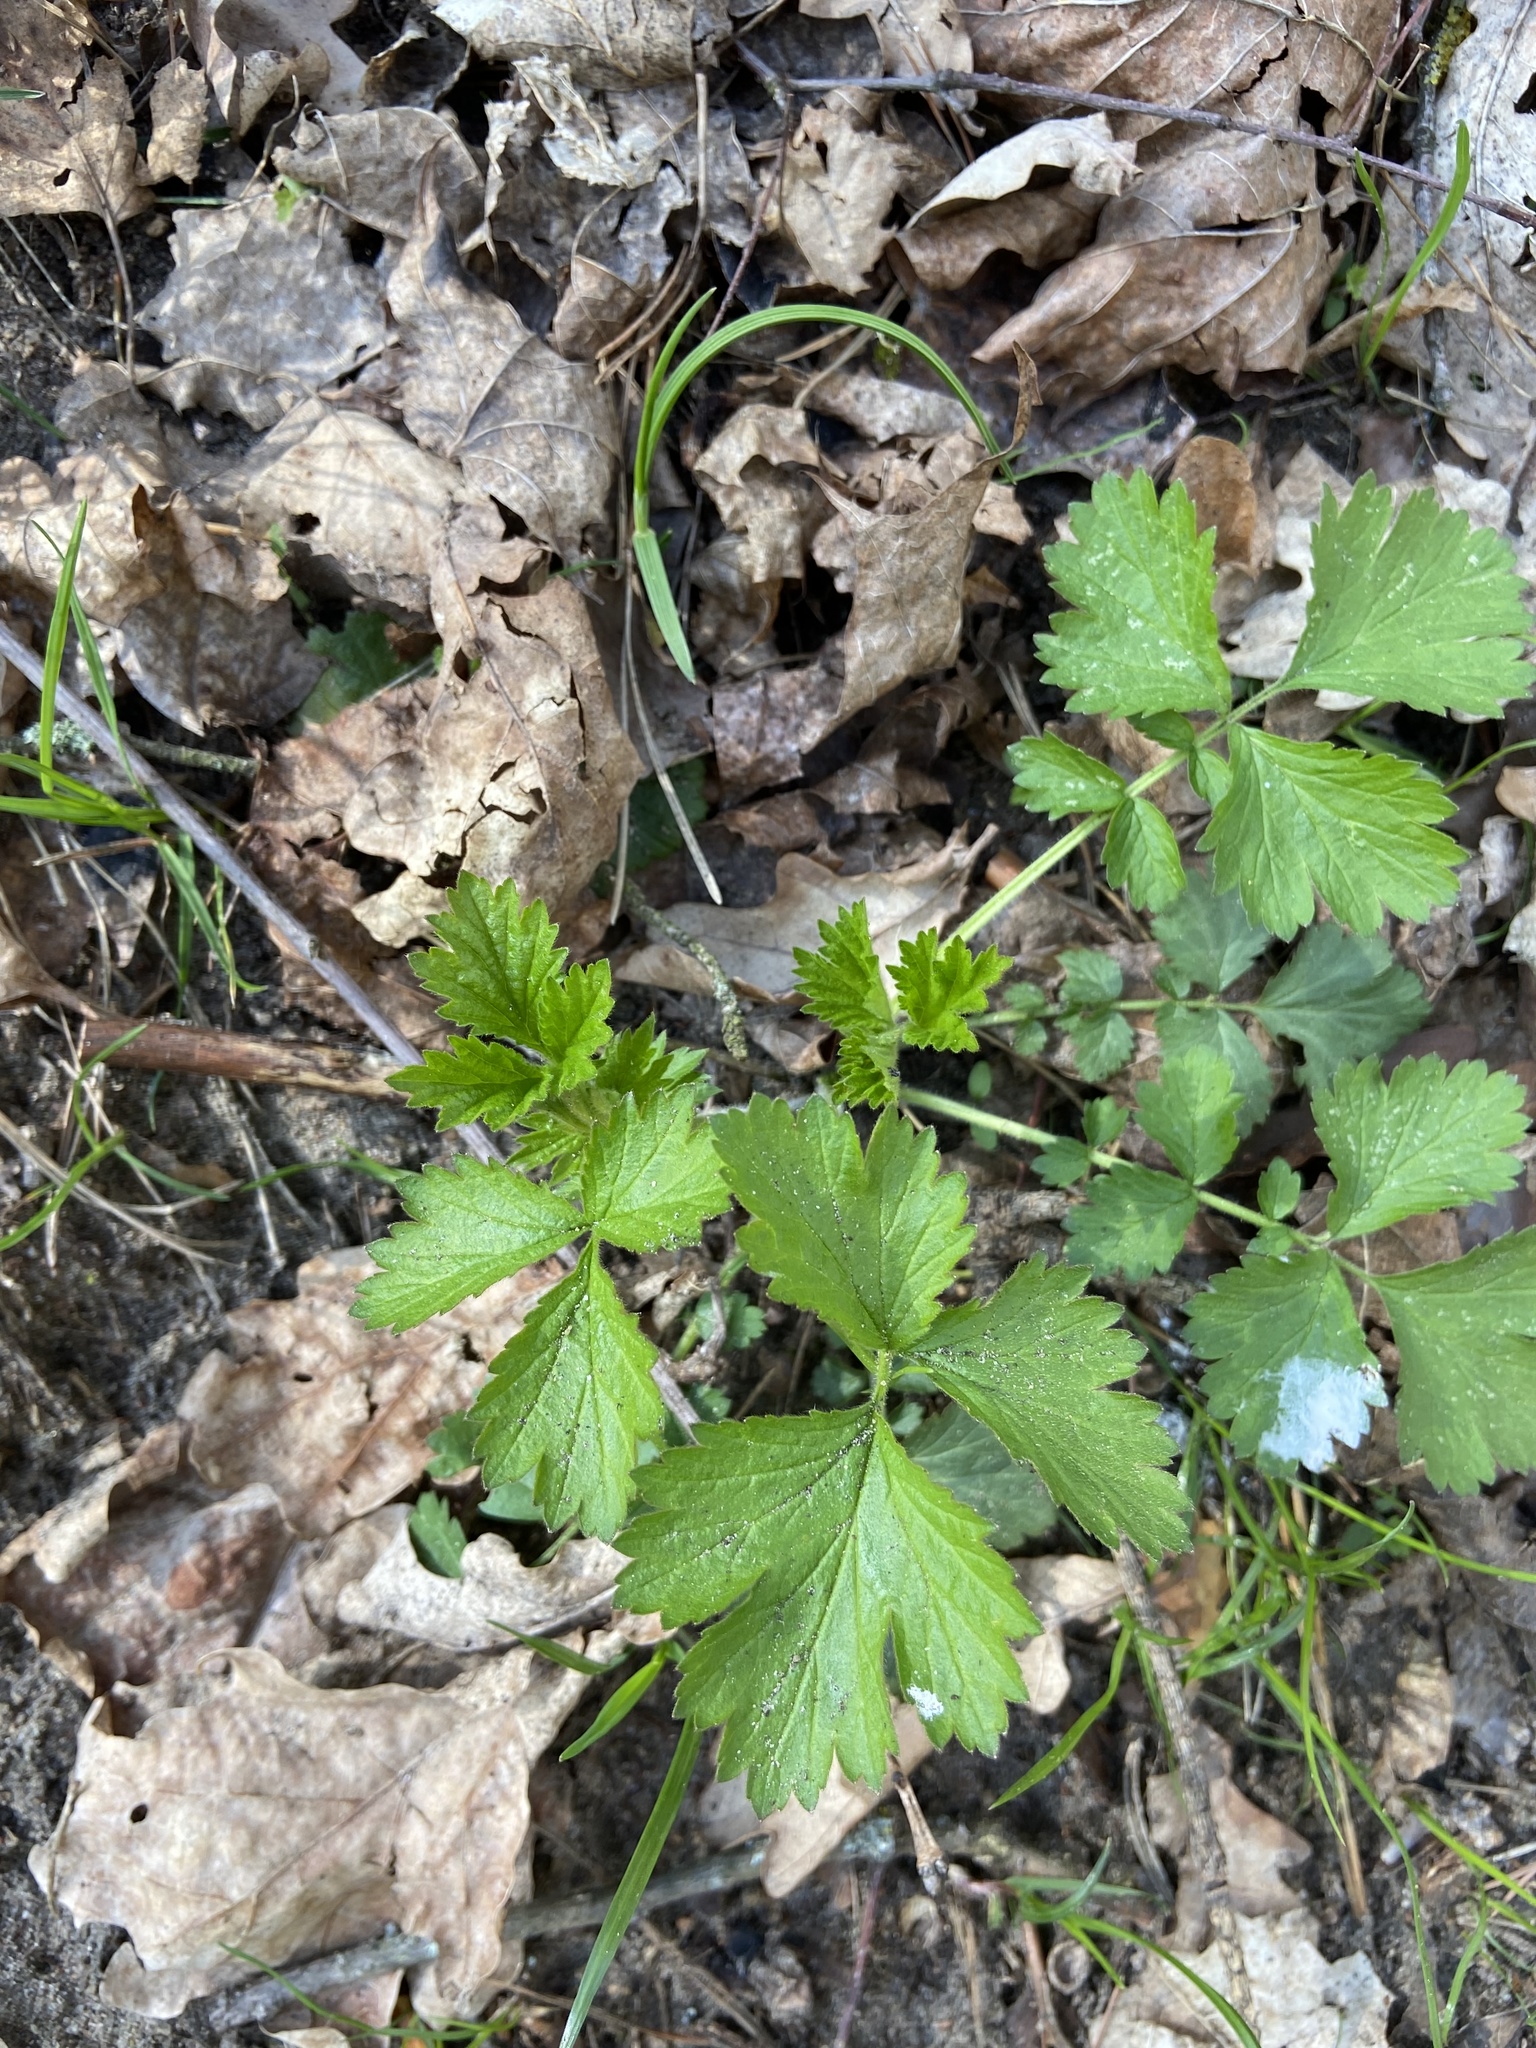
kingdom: Plantae
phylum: Tracheophyta
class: Magnoliopsida
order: Rosales
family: Rosaceae
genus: Geum
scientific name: Geum urbanum
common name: Wood avens
